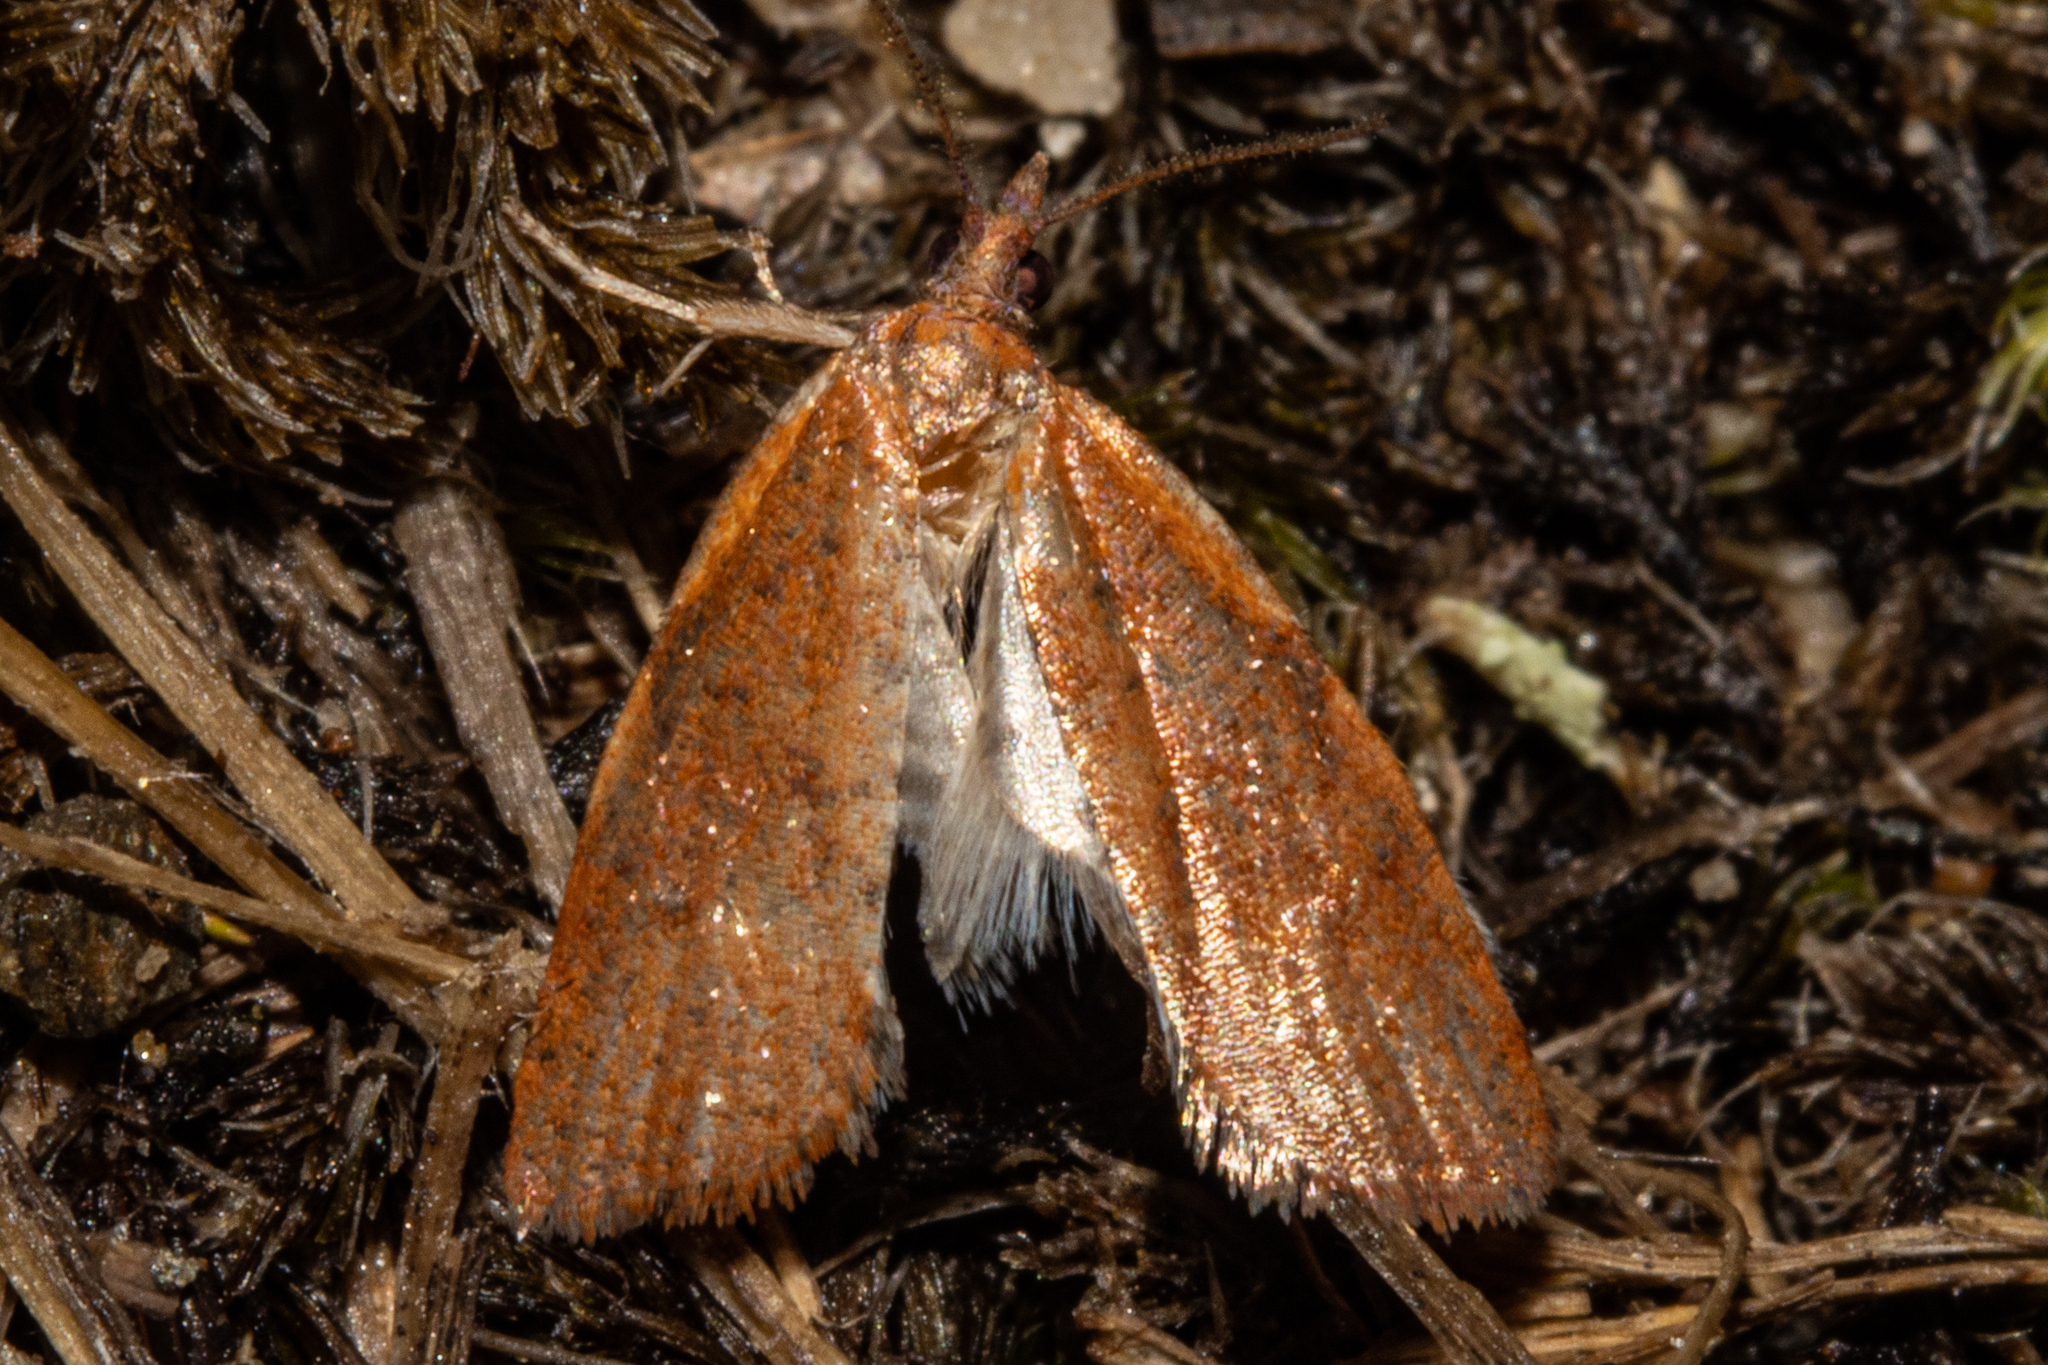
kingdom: Animalia
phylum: Arthropoda
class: Insecta
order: Lepidoptera
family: Tortricidae
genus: Planotortrix
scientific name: Planotortrix flammea
